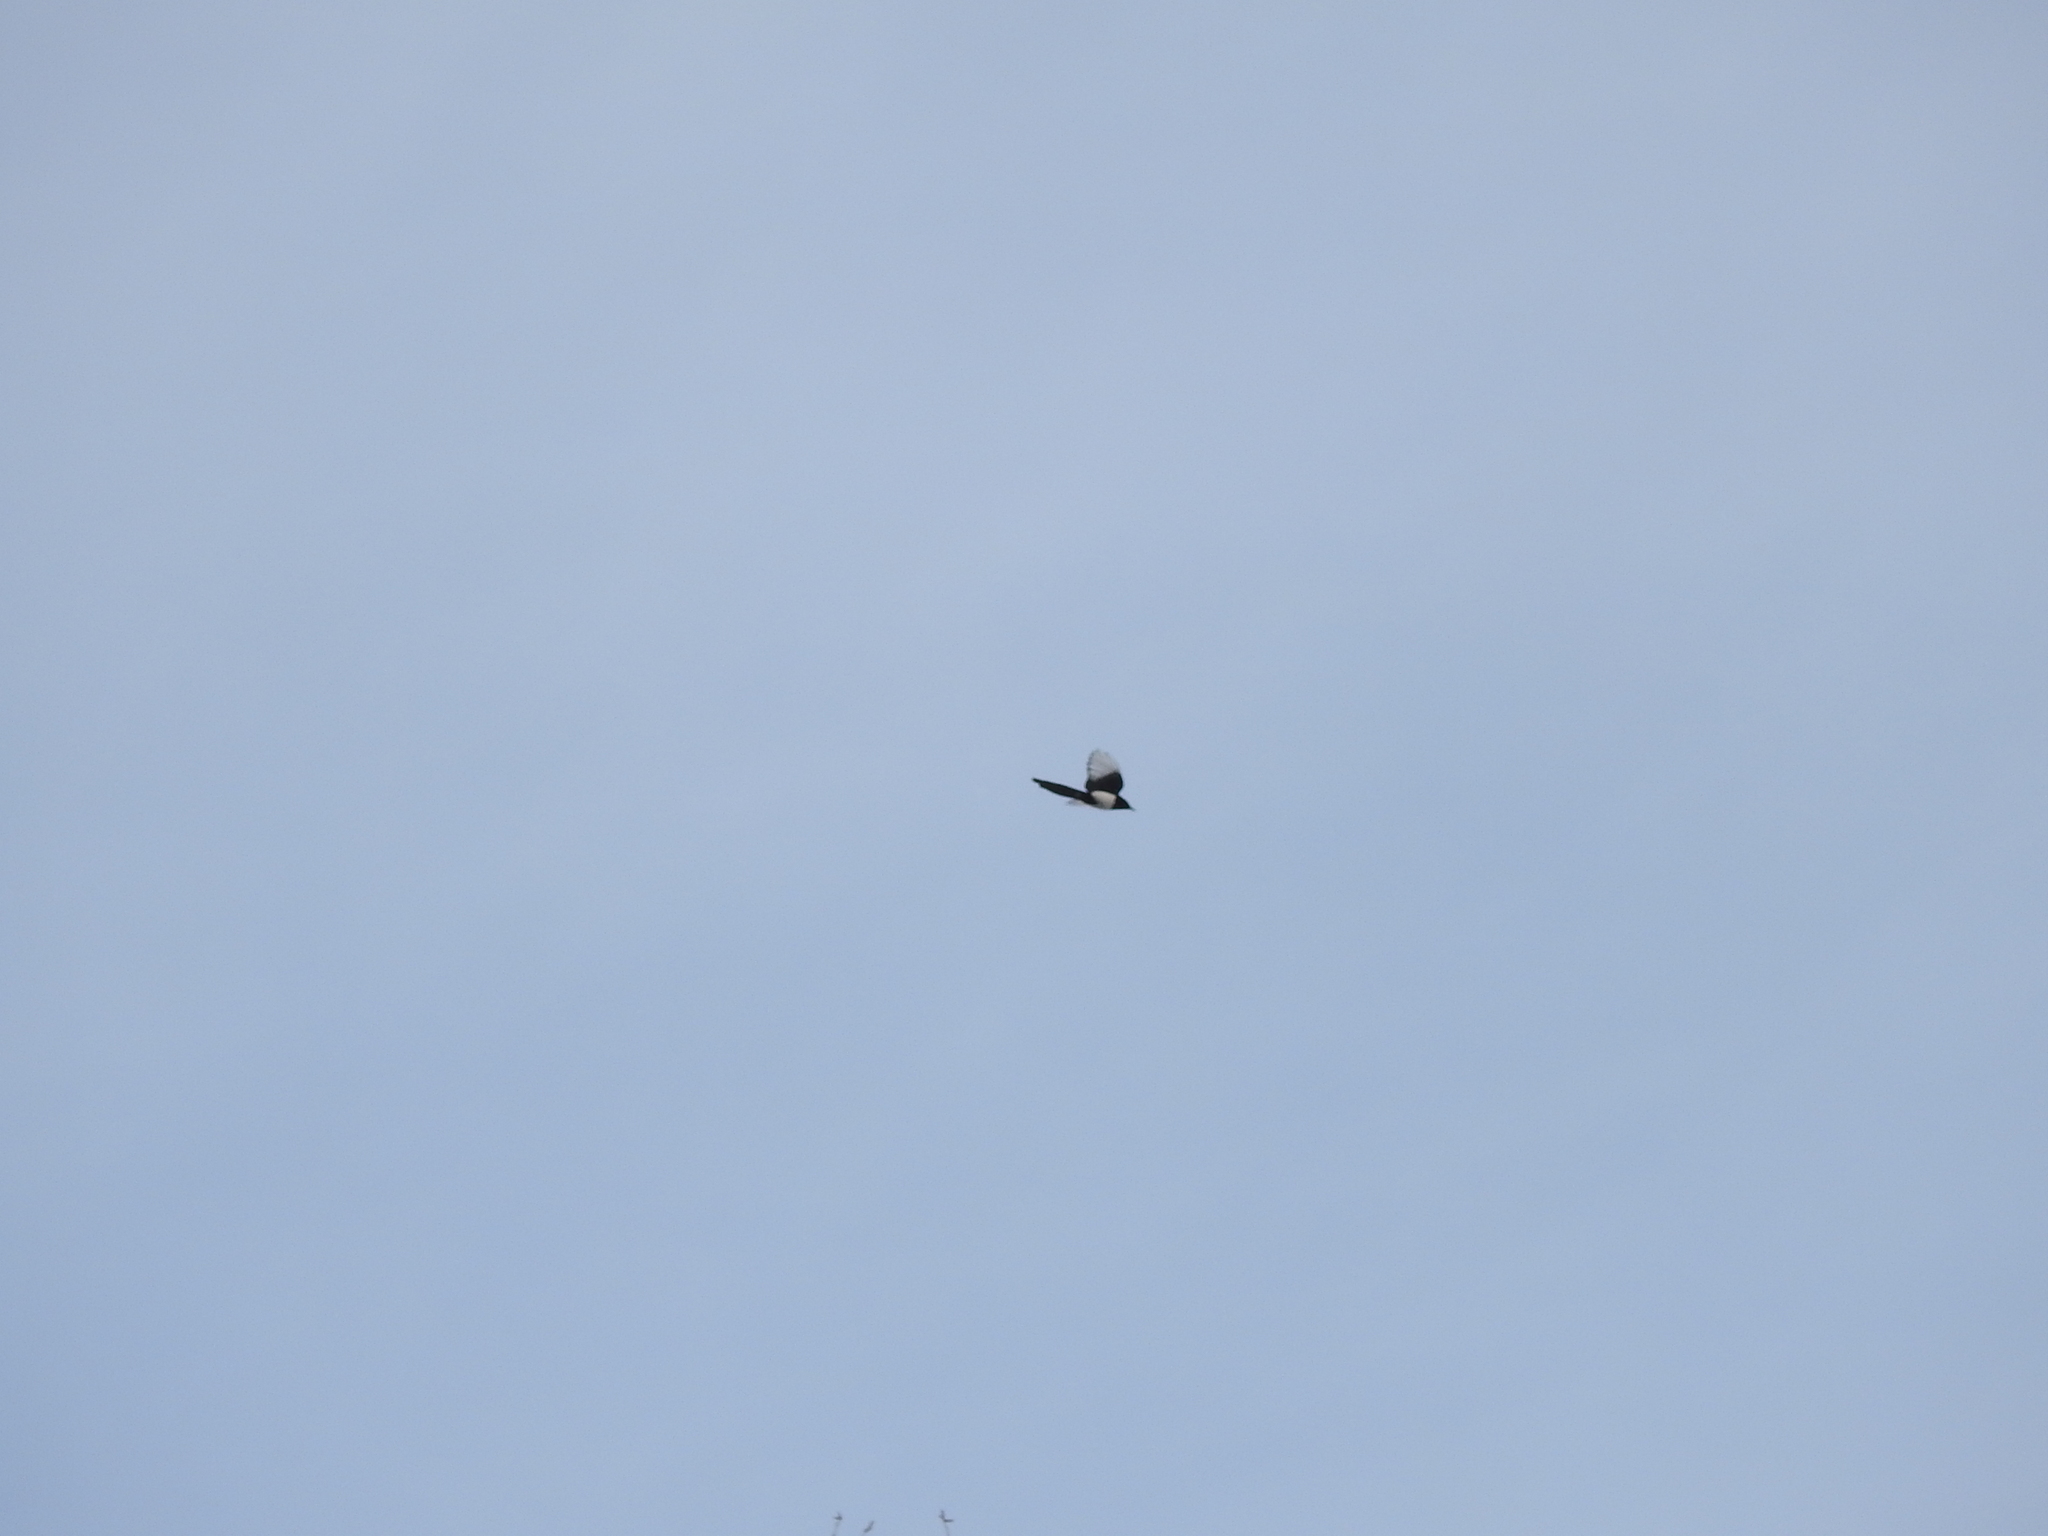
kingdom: Animalia
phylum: Chordata
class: Aves
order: Passeriformes
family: Corvidae
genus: Pica
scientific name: Pica pica
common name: Eurasian magpie
